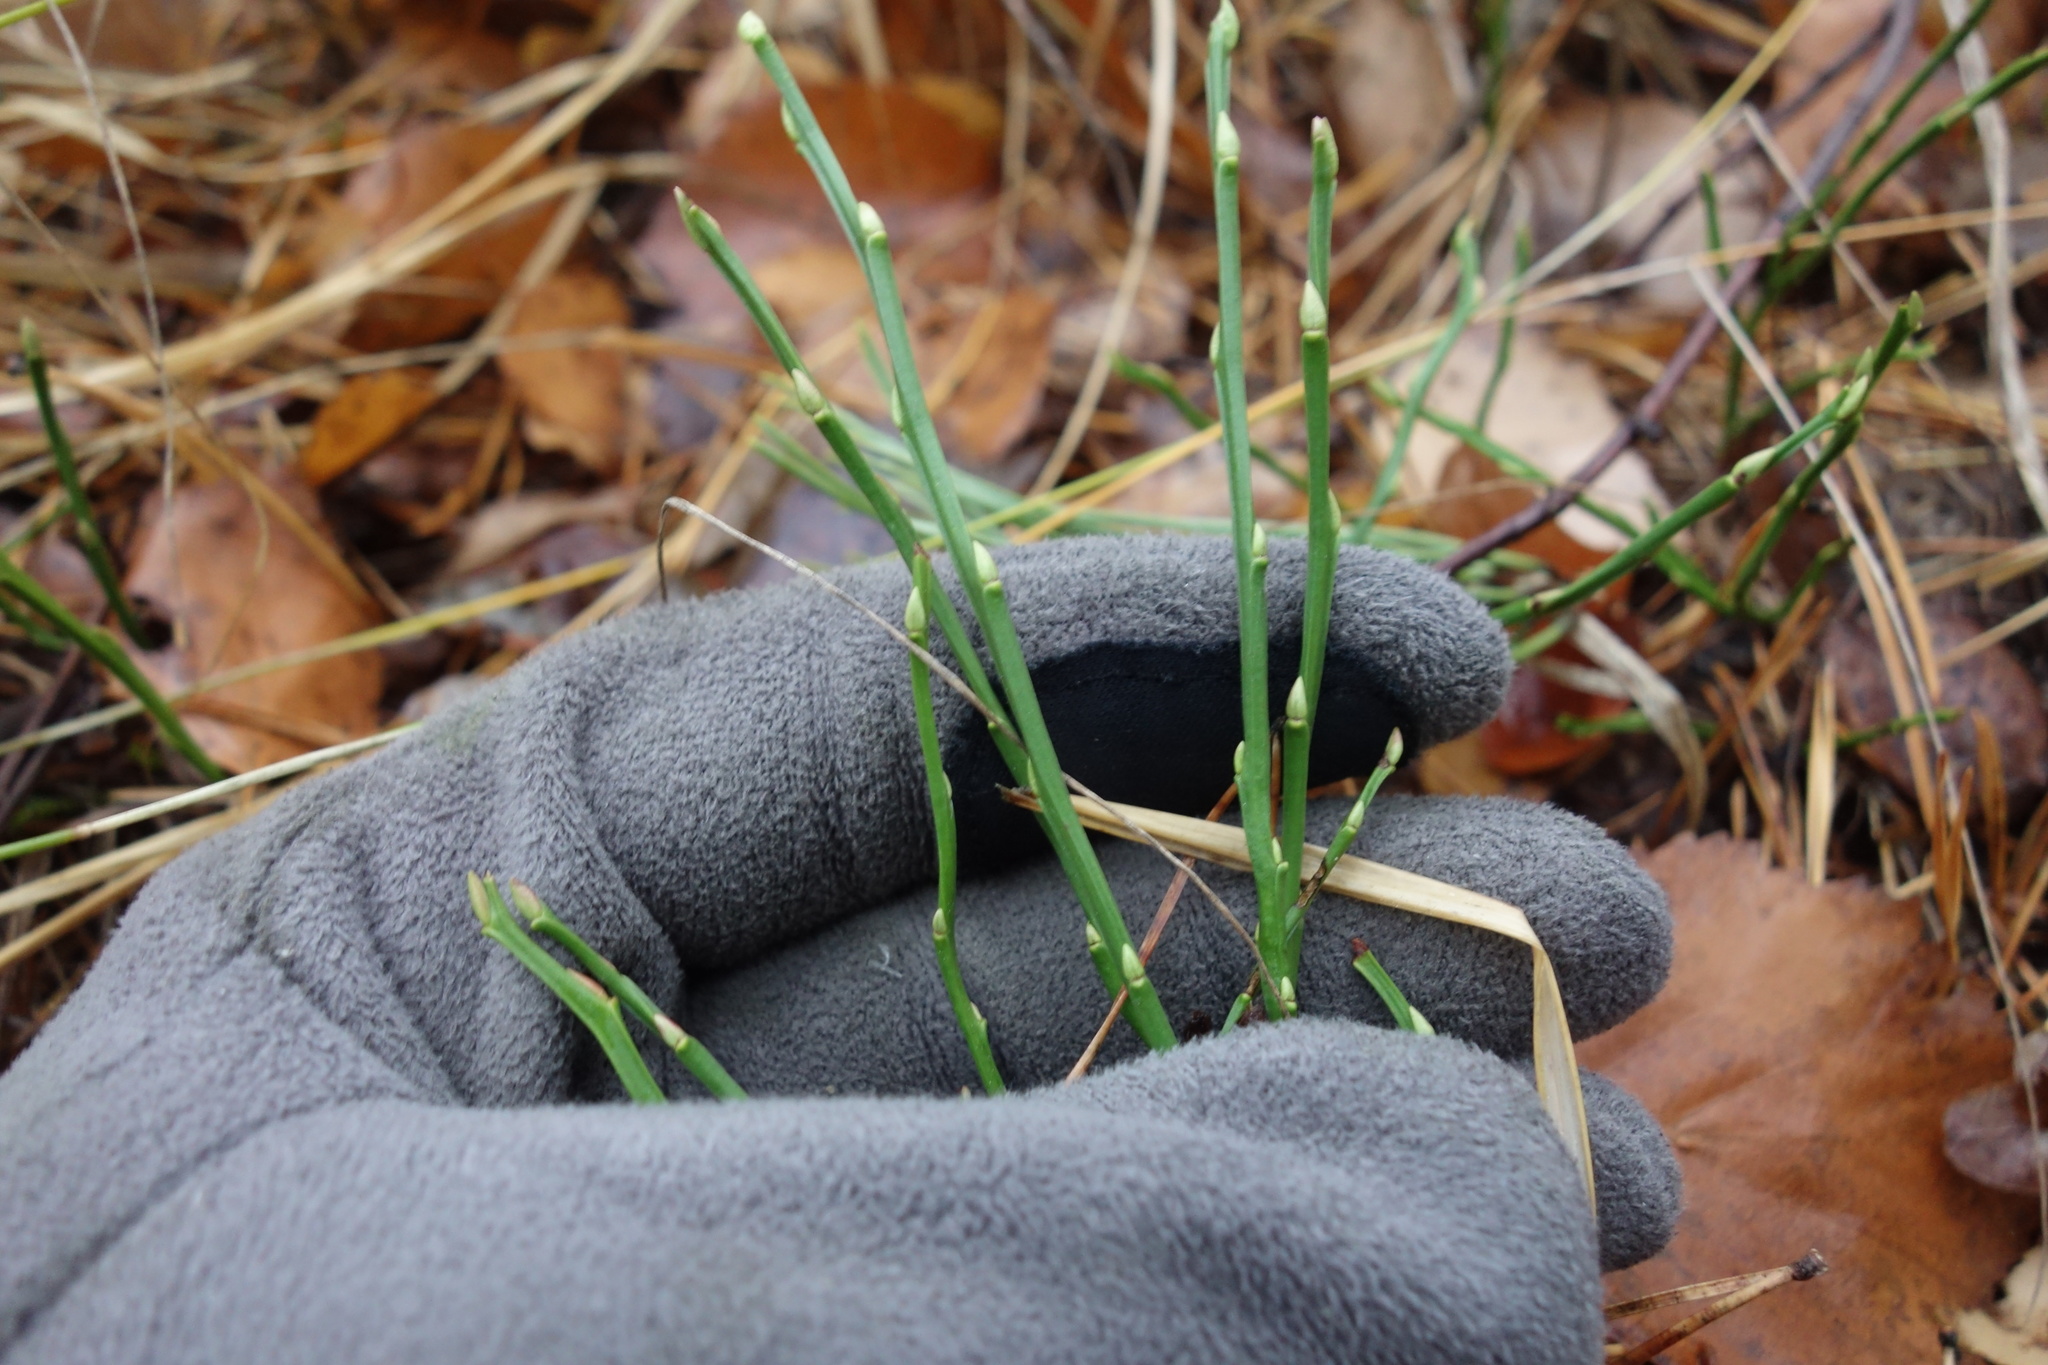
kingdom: Plantae
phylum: Tracheophyta
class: Magnoliopsida
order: Ericales
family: Ericaceae
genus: Vaccinium
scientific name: Vaccinium myrtillus
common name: Bilberry
